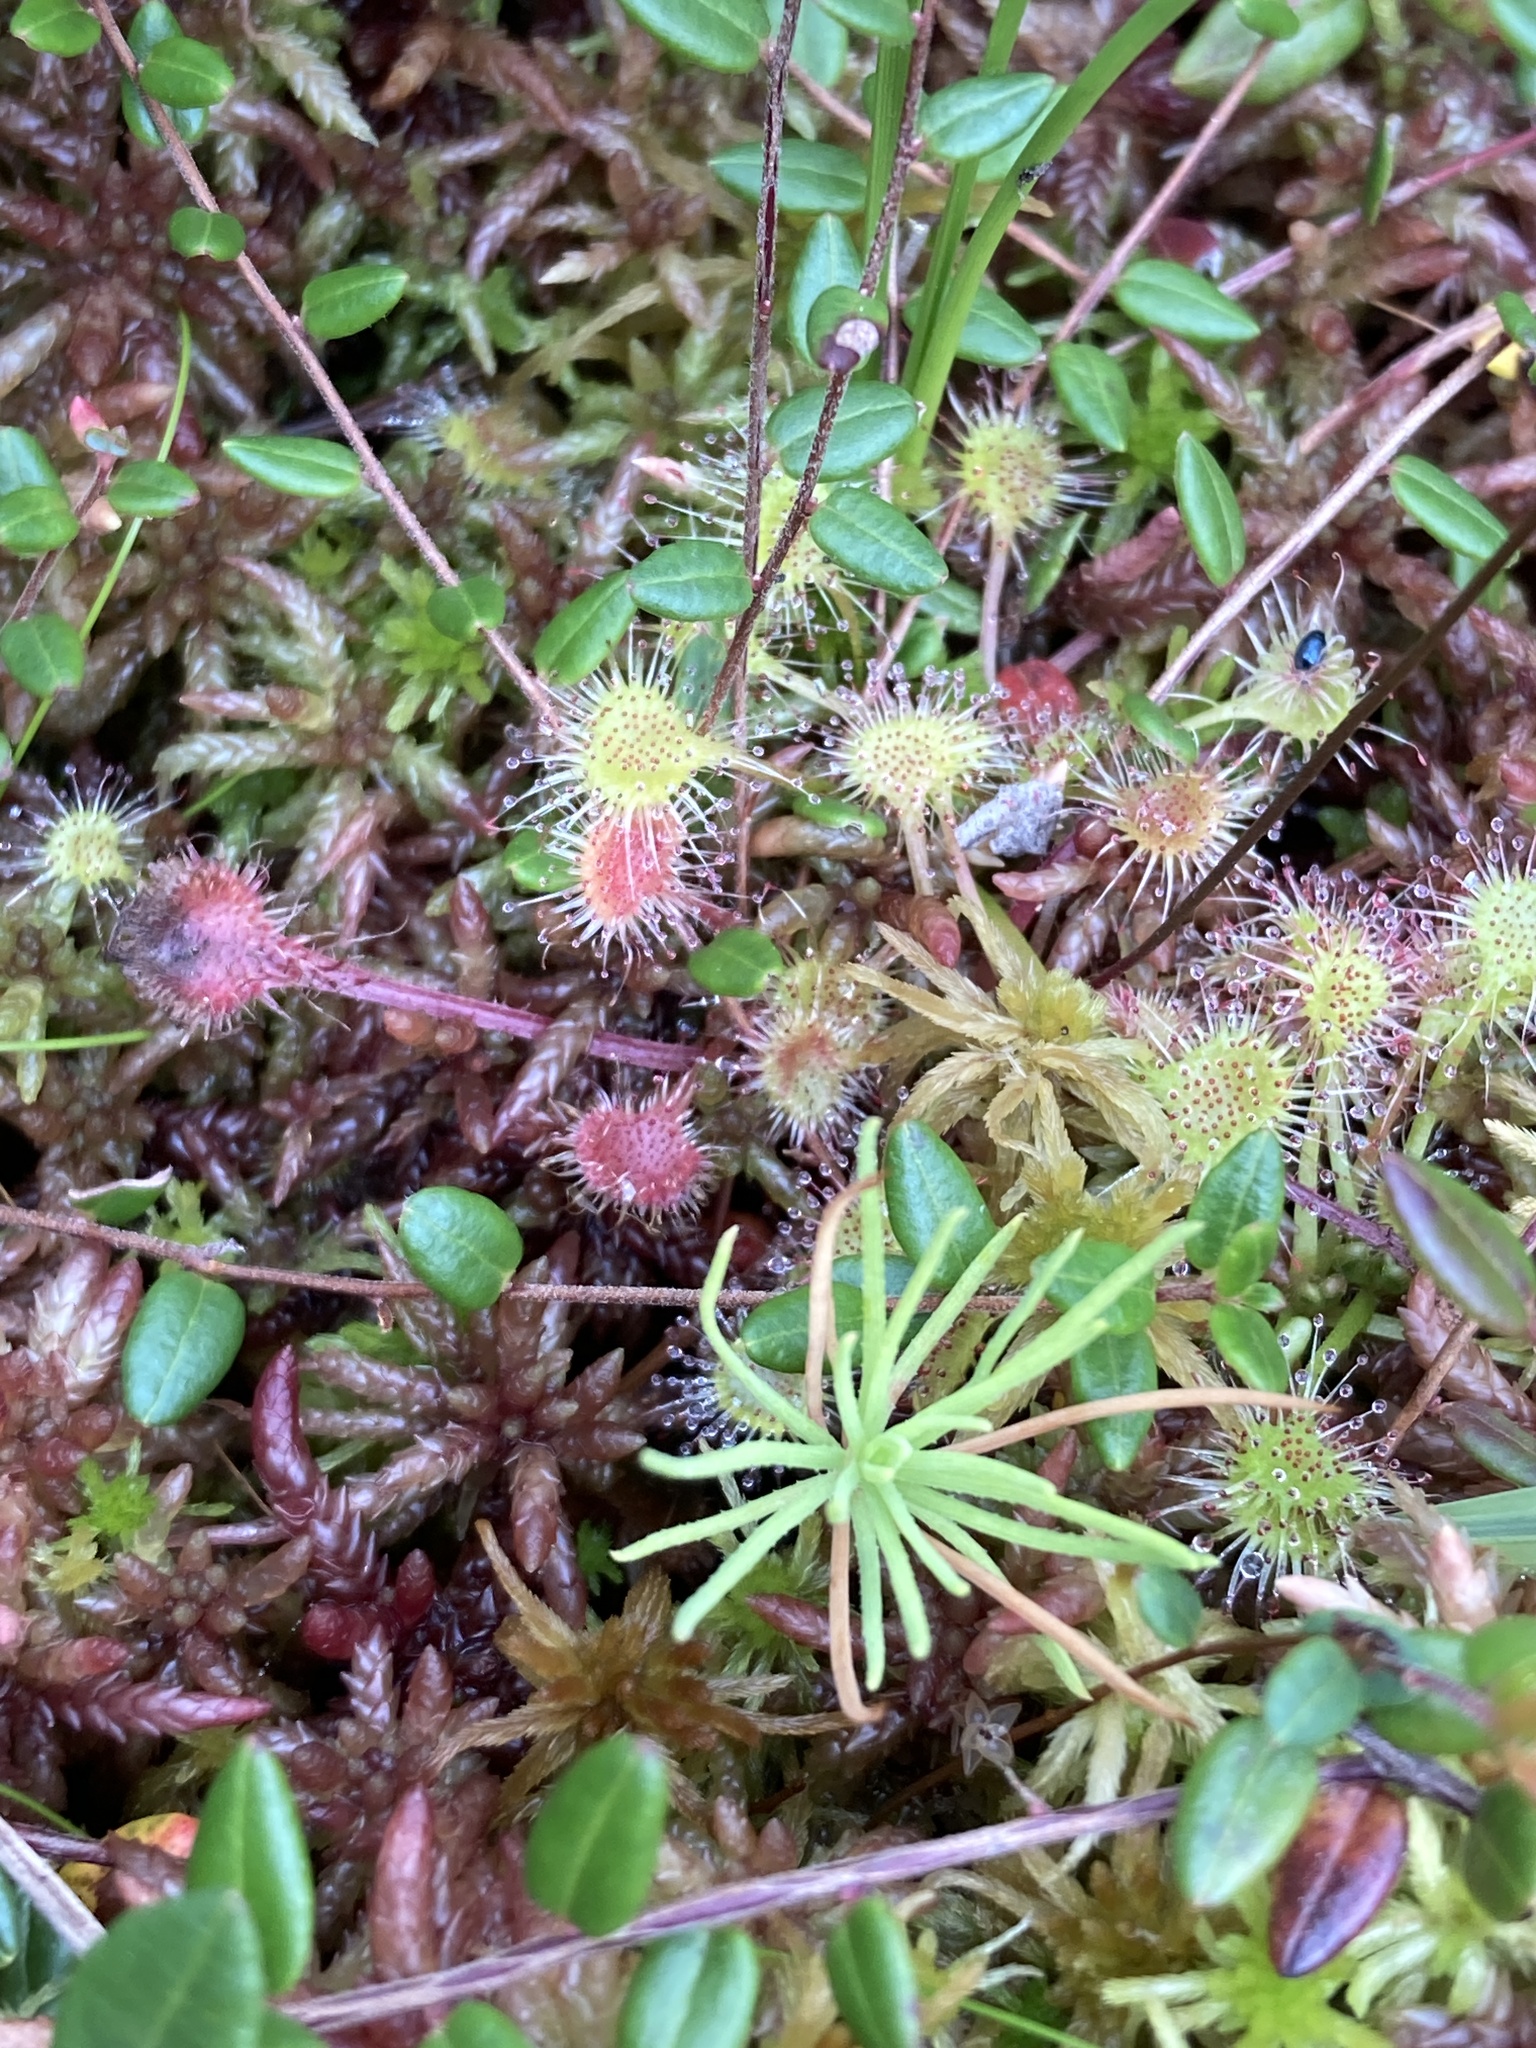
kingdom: Plantae
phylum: Tracheophyta
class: Magnoliopsida
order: Caryophyllales
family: Droseraceae
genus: Drosera
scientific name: Drosera rotundifolia
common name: Round-leaved sundew
